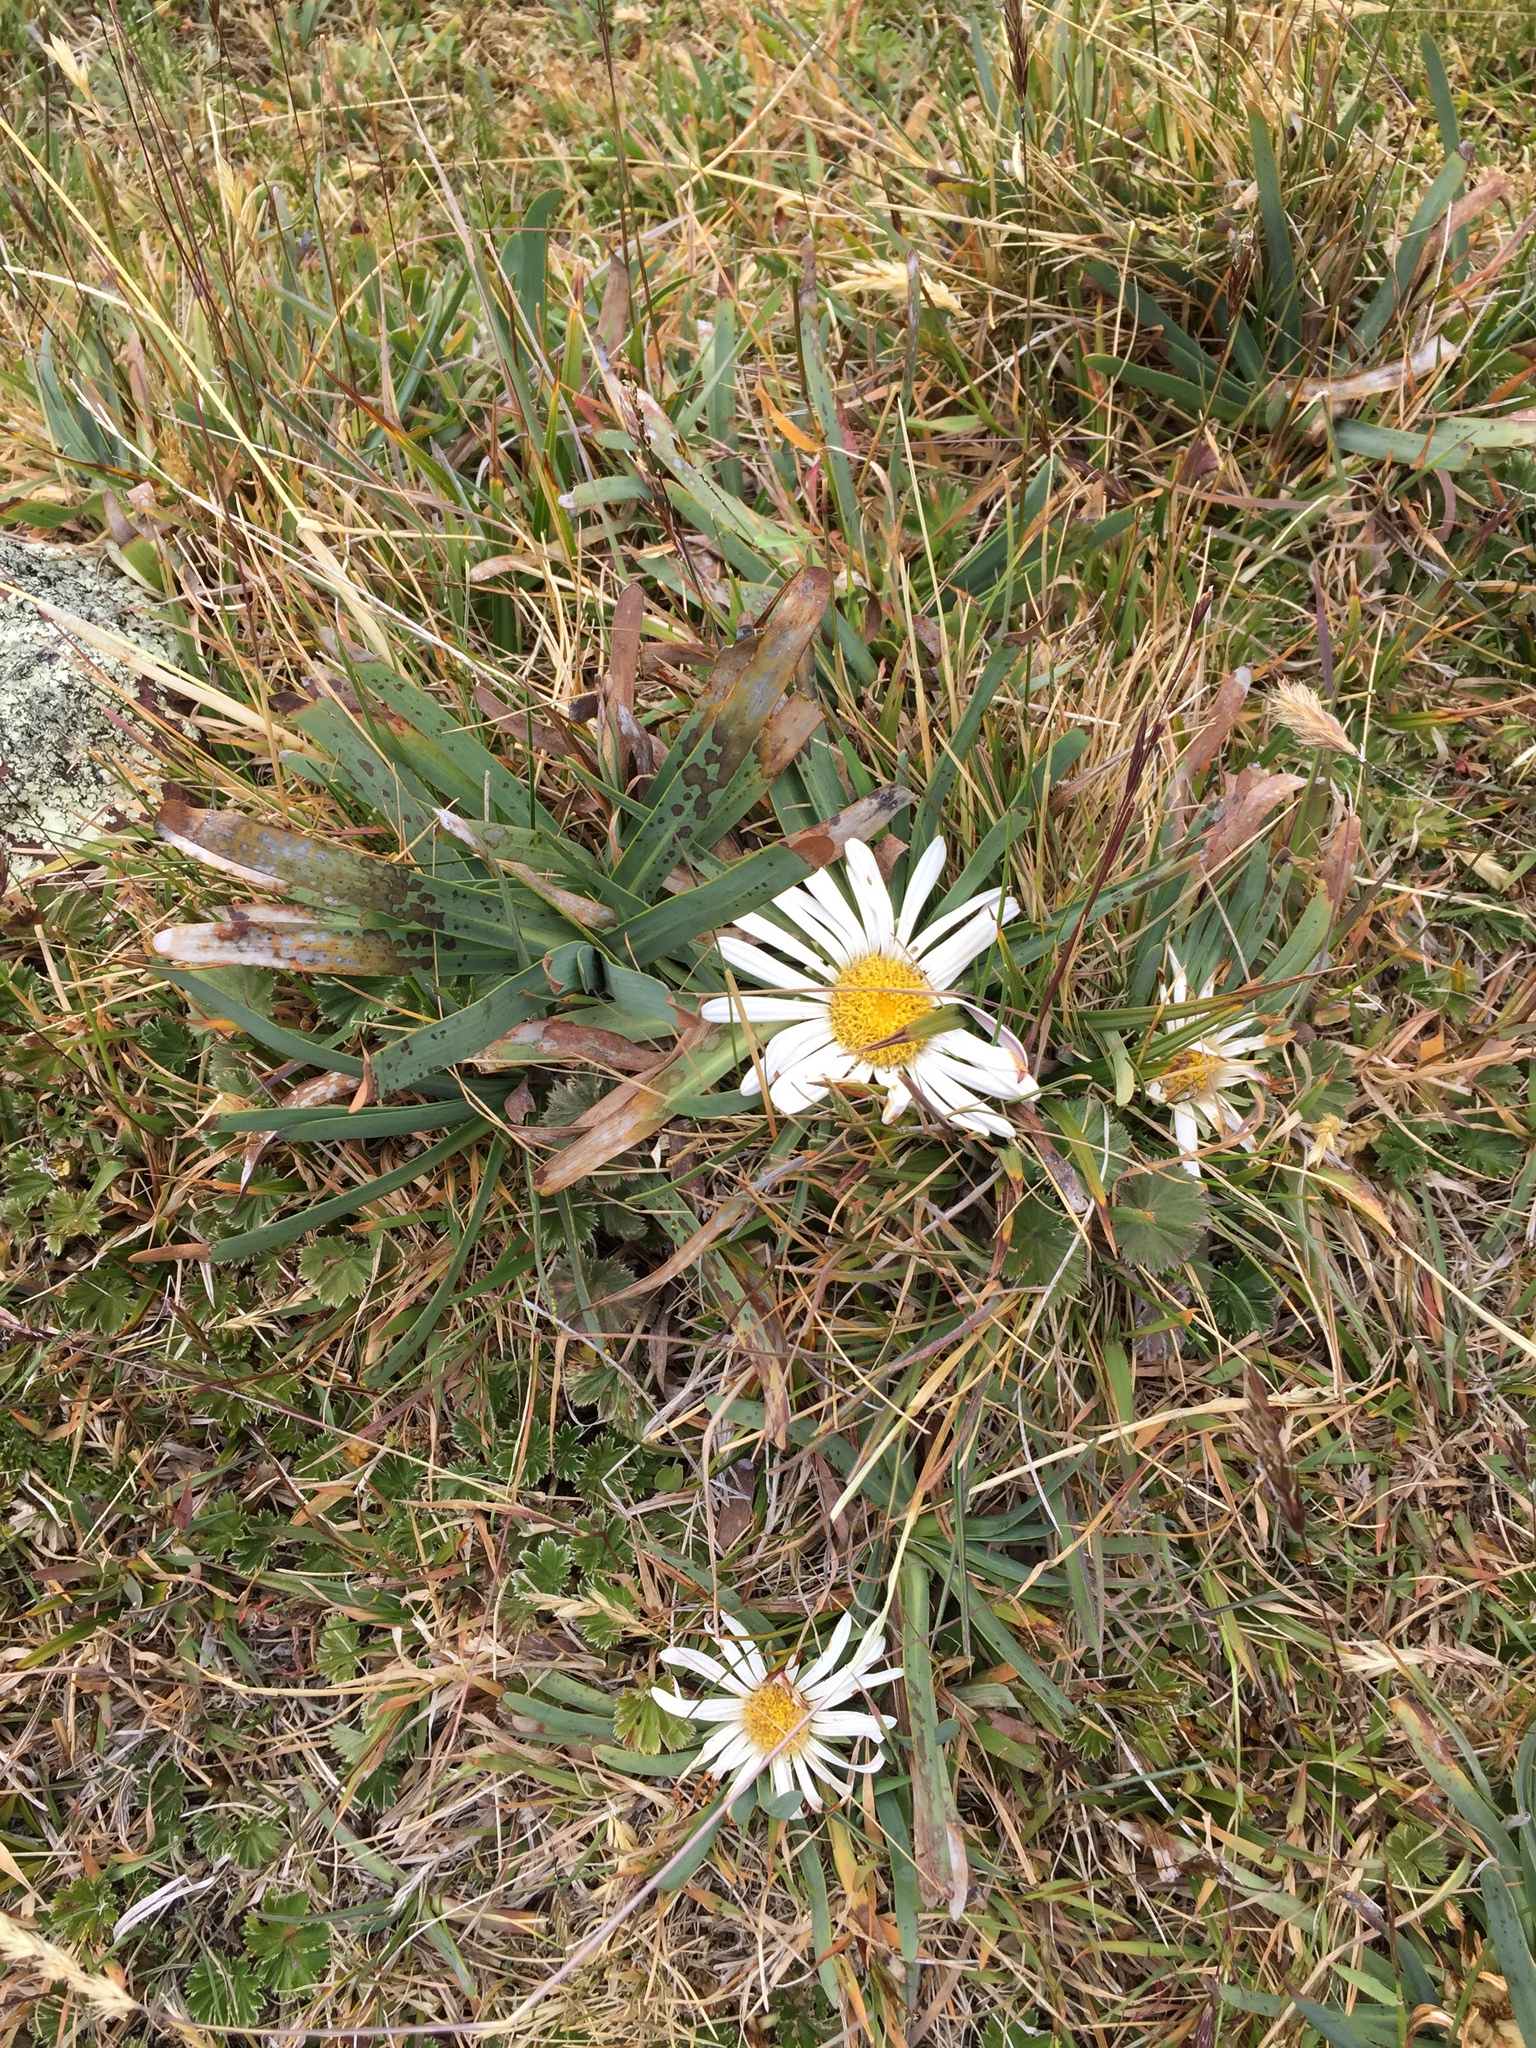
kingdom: Plantae
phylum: Tracheophyta
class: Magnoliopsida
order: Asterales
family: Asteraceae
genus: Rockhausenia
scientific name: Rockhausenia nubigena
